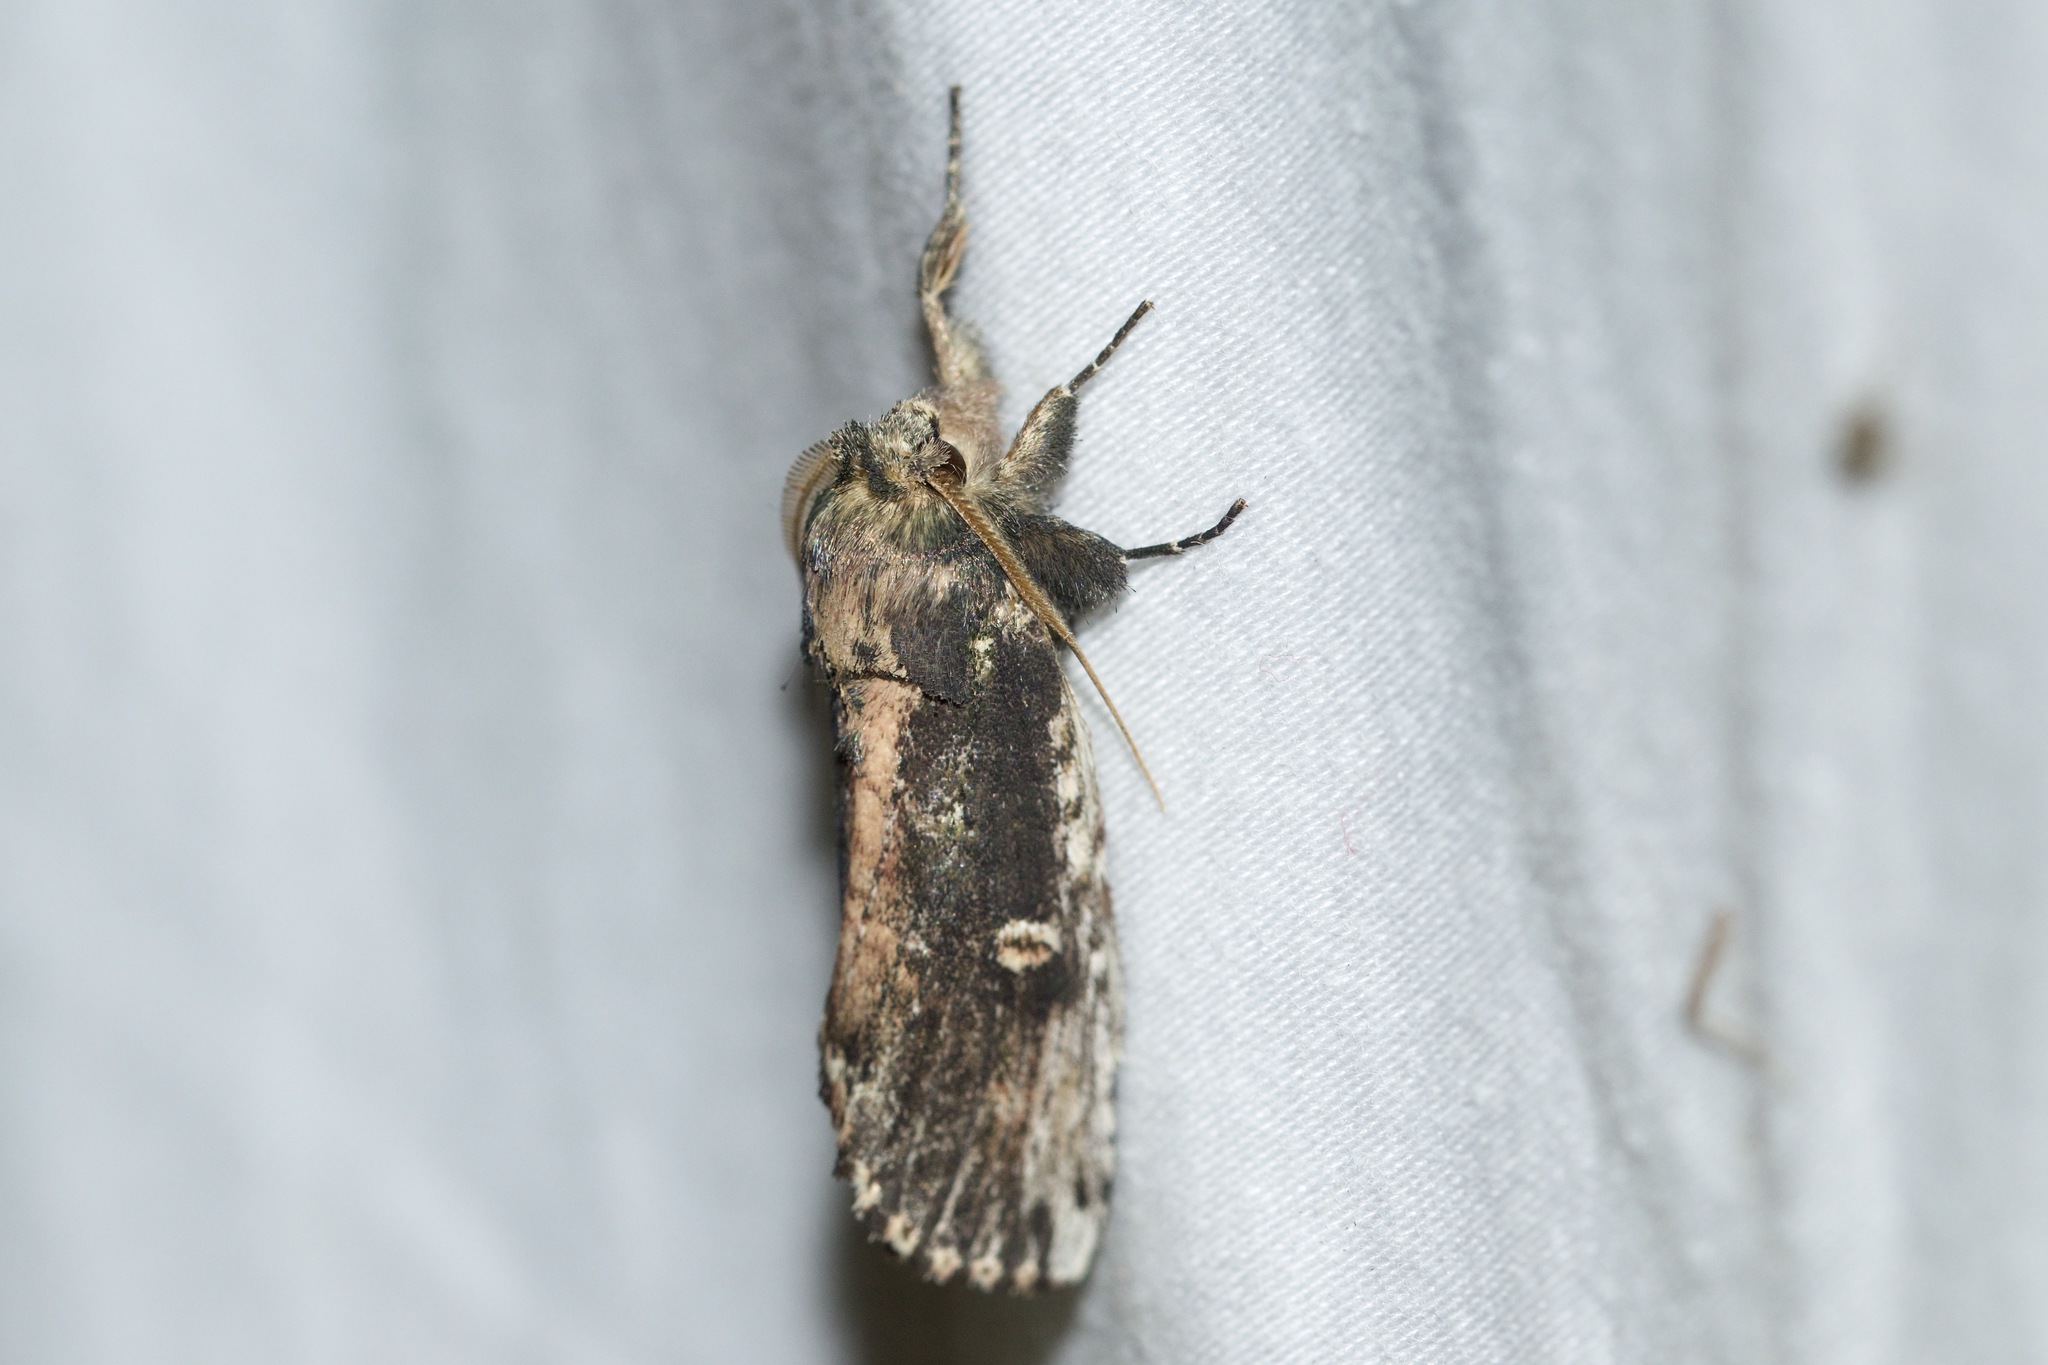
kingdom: Animalia
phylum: Arthropoda
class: Insecta
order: Lepidoptera
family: Notodontidae
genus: Schizura
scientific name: Schizura ipomaeae
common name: Morning-glory prominent
